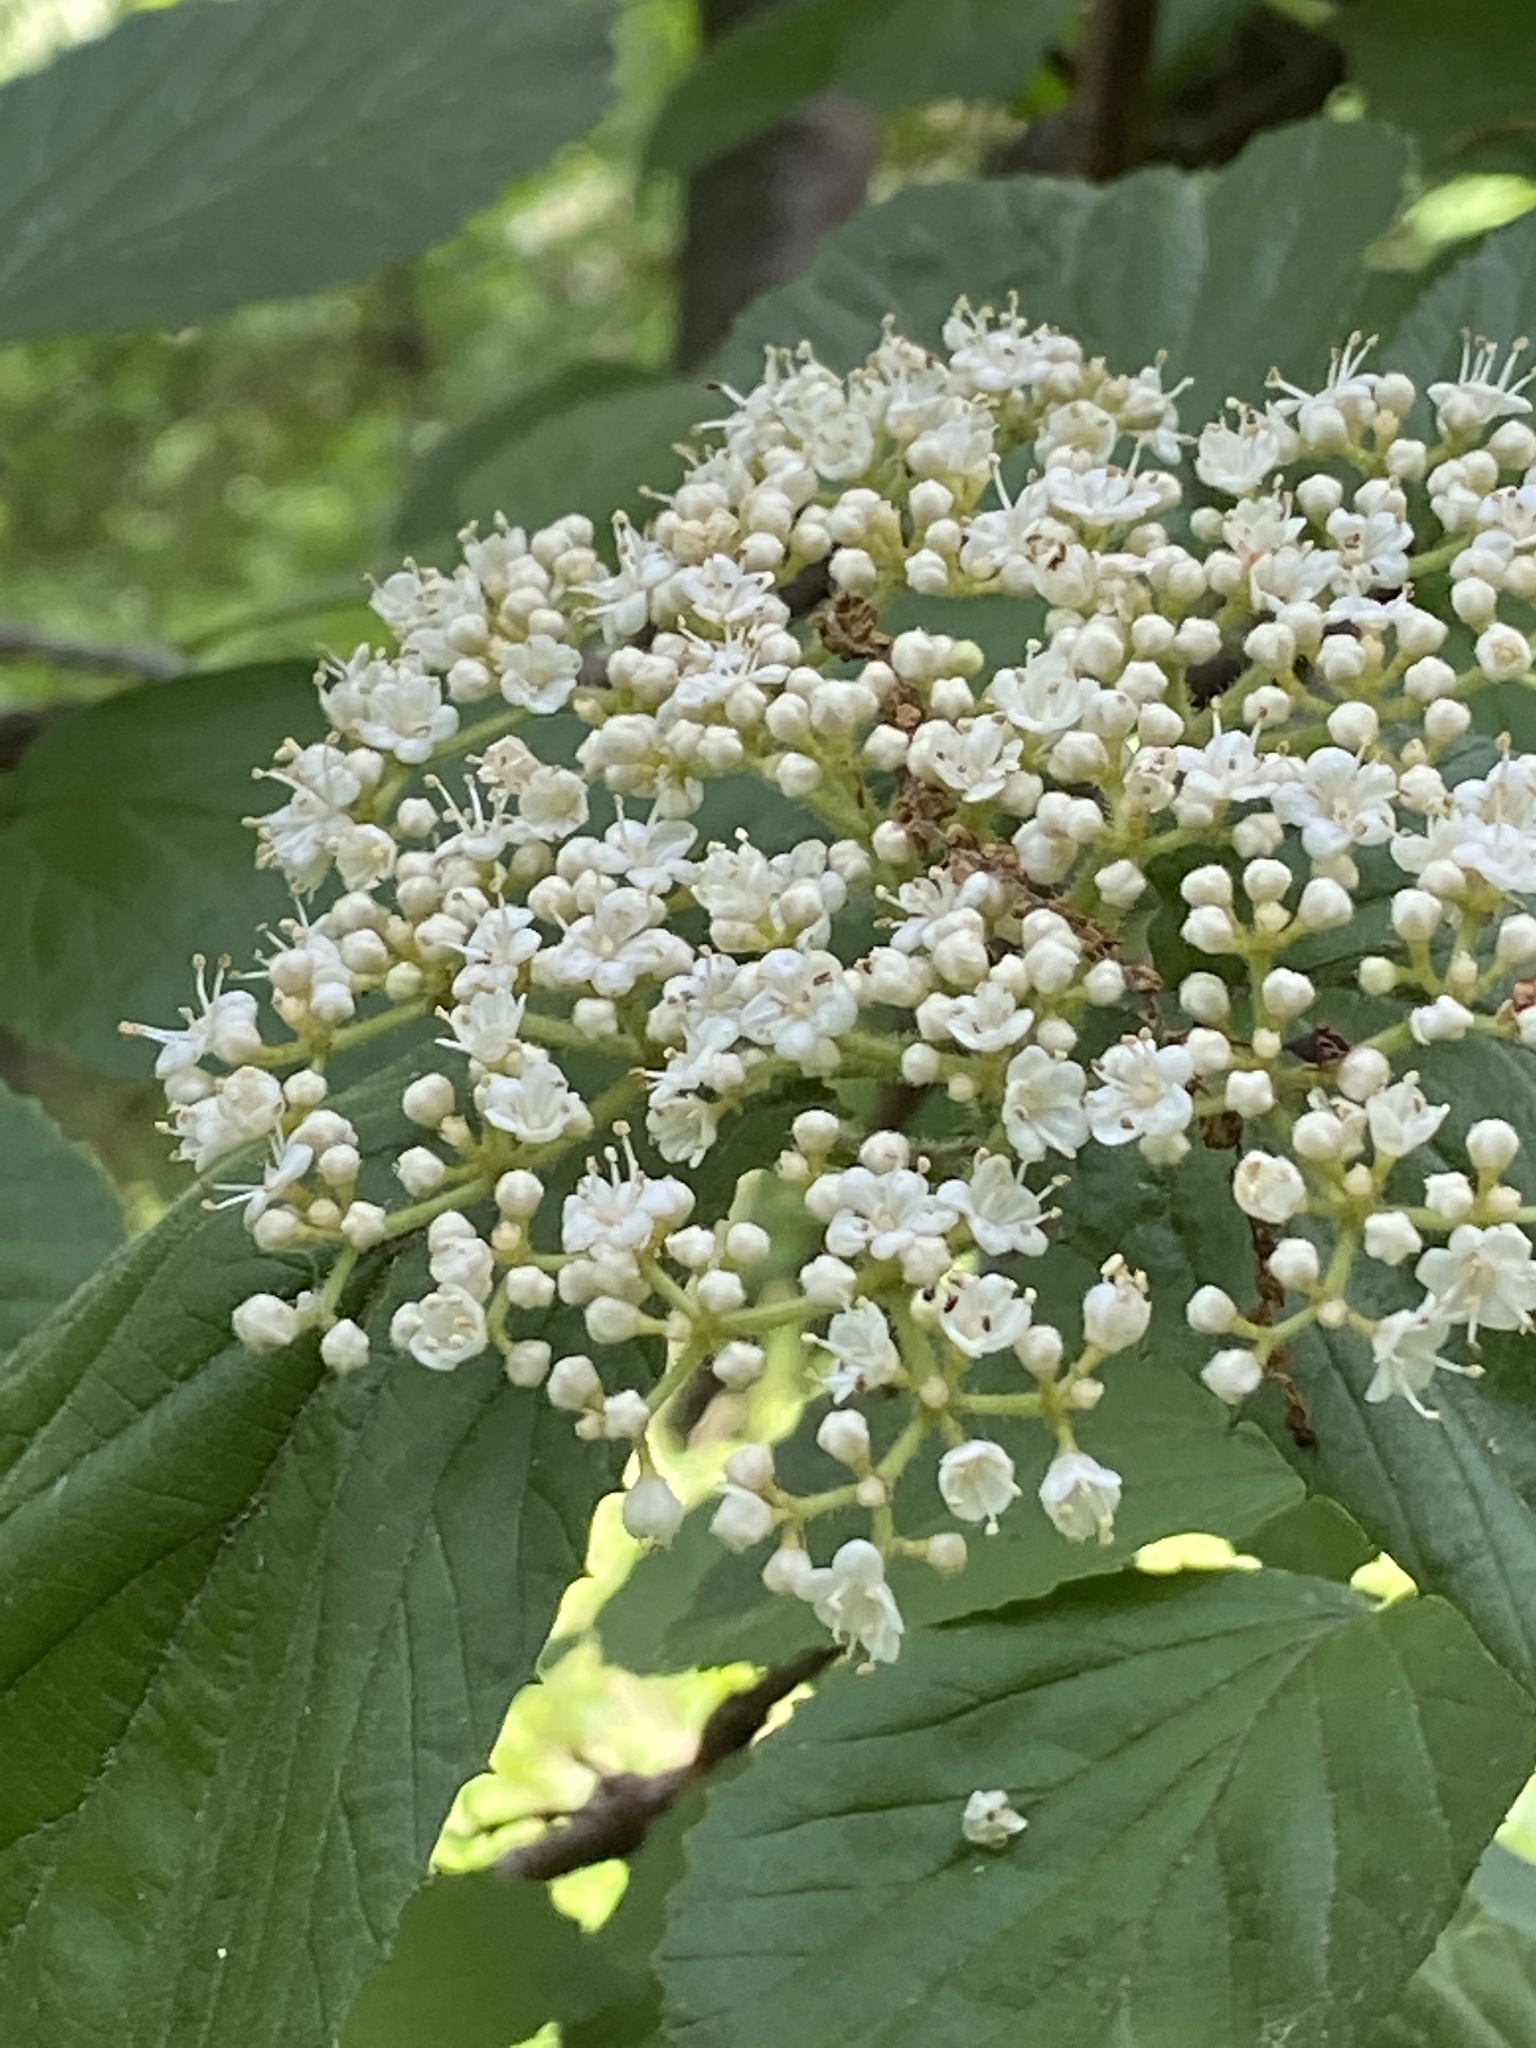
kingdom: Plantae
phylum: Tracheophyta
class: Magnoliopsida
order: Dipsacales
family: Viburnaceae
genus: Viburnum
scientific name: Viburnum dilatatum
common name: Linden arrowwood
